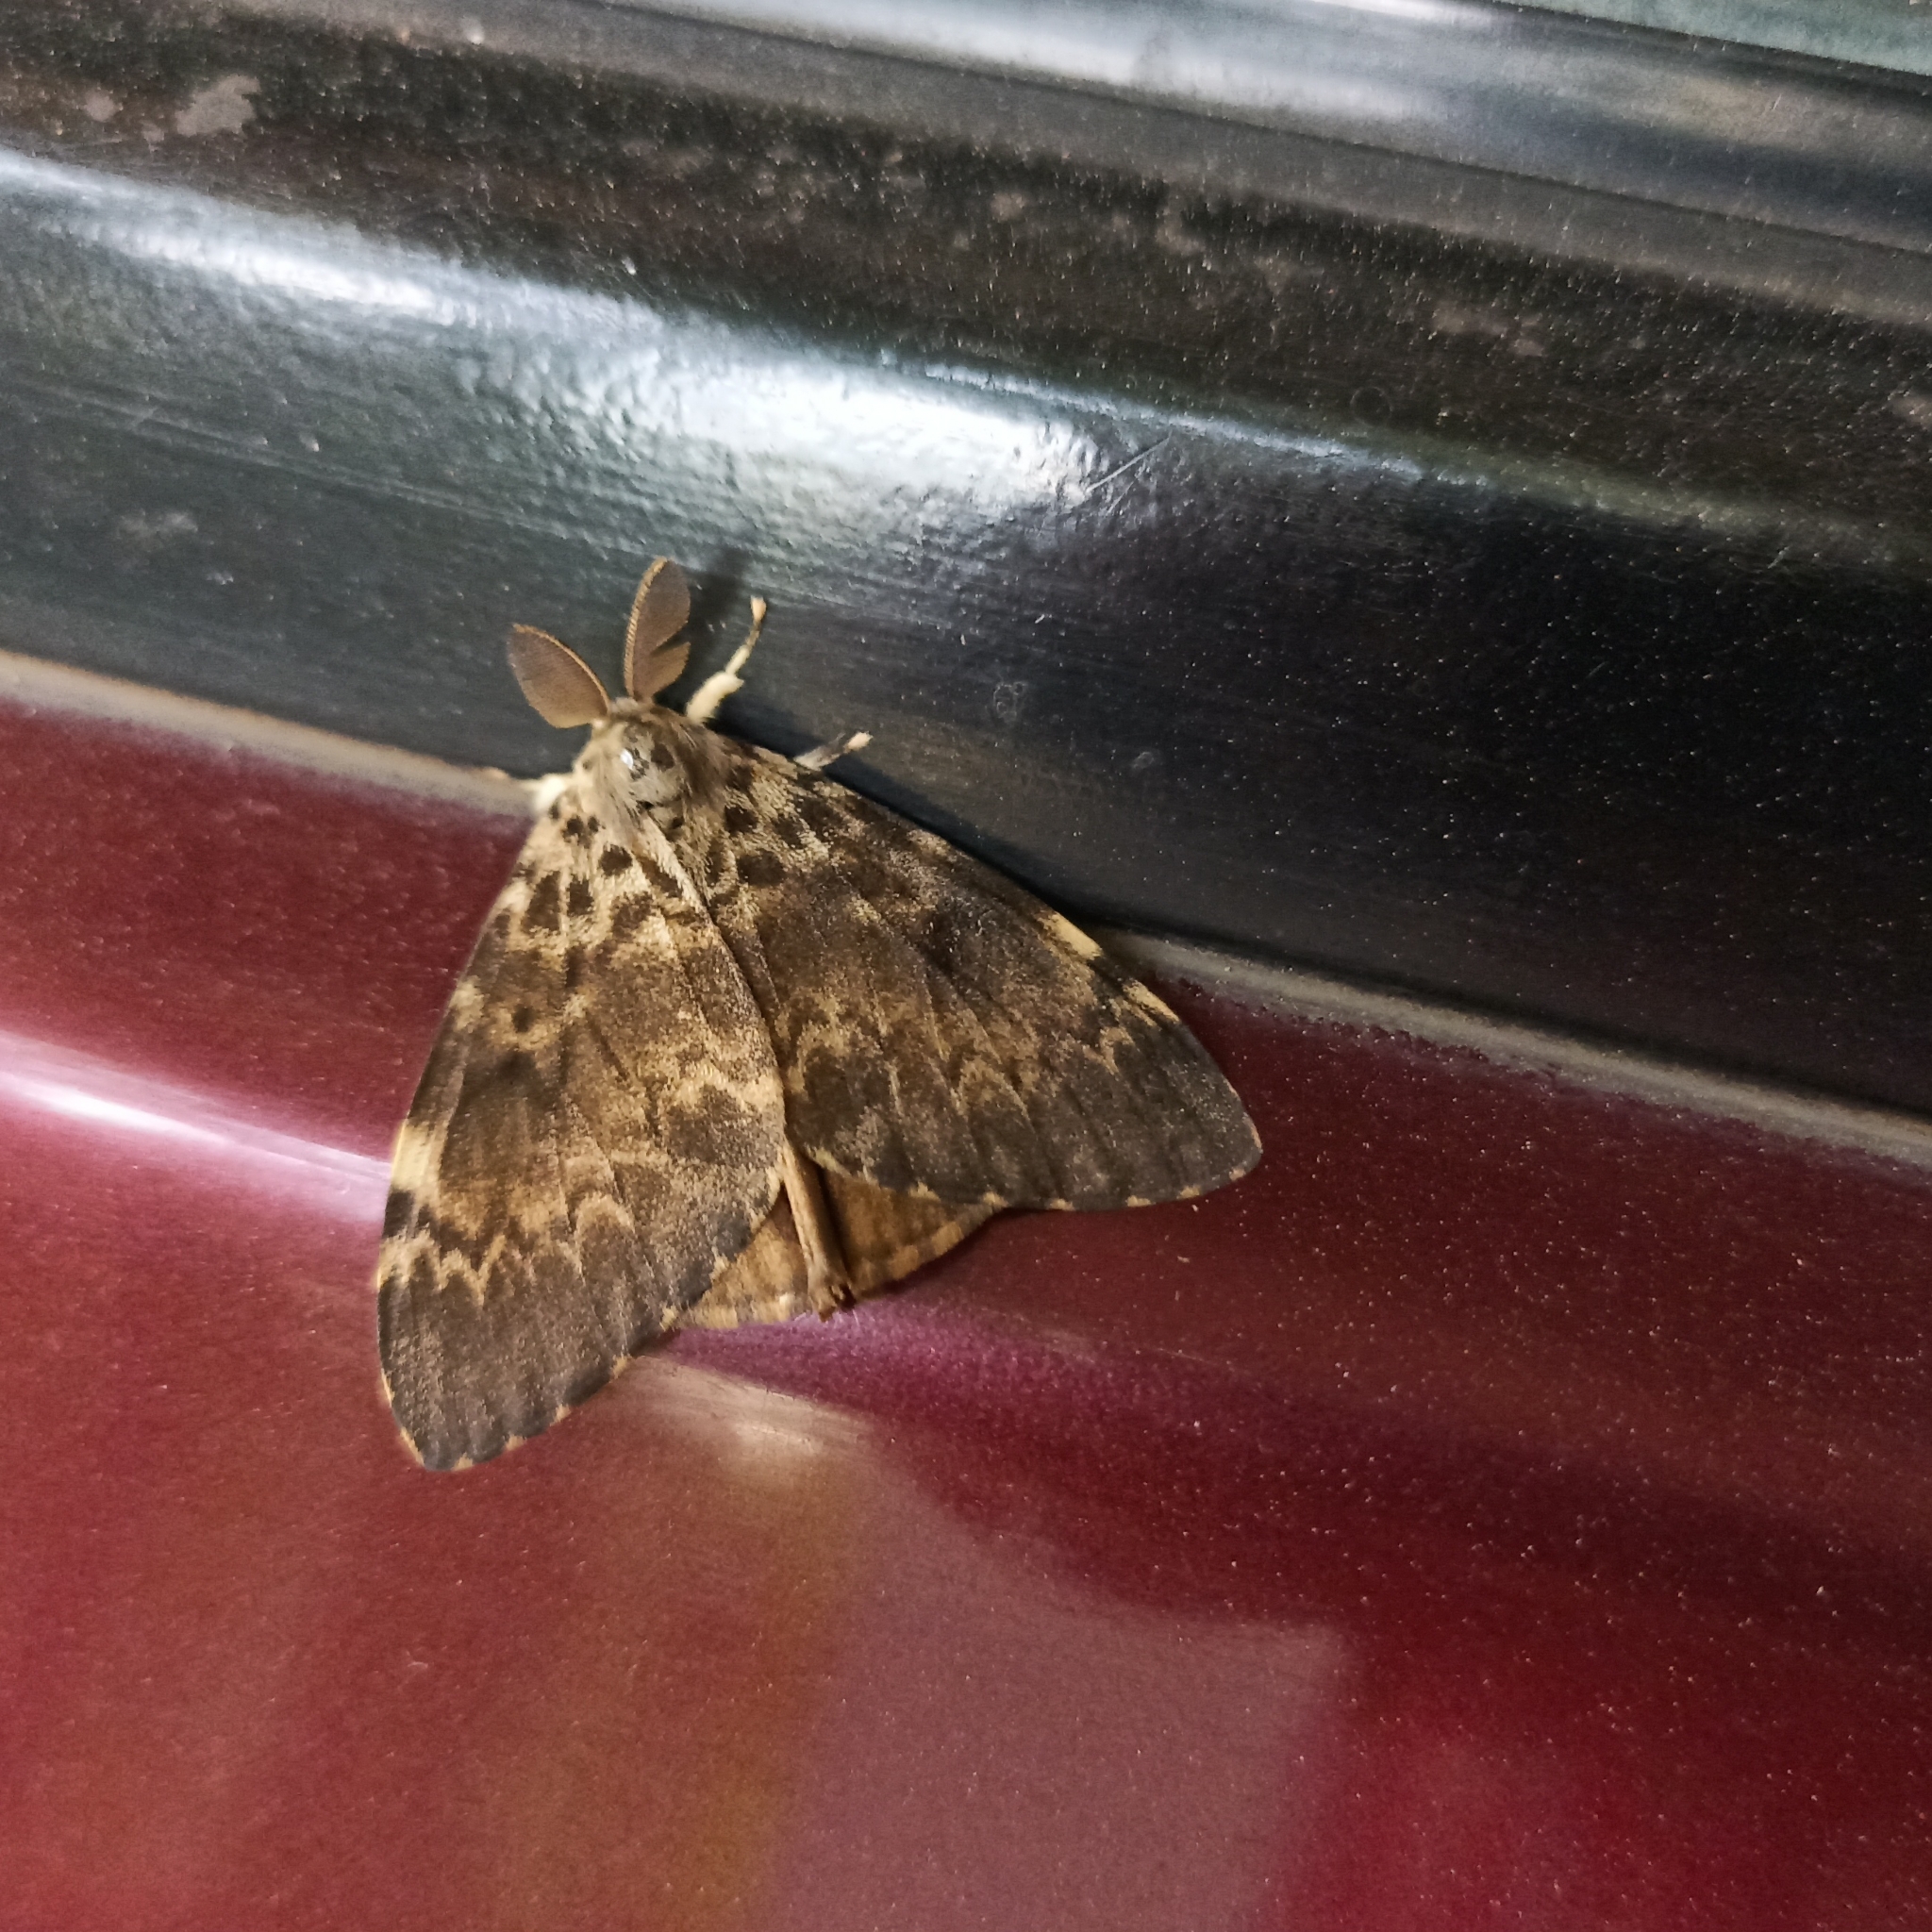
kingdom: Animalia
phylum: Arthropoda
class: Insecta
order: Lepidoptera
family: Erebidae
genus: Lymantria
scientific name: Lymantria ampla
